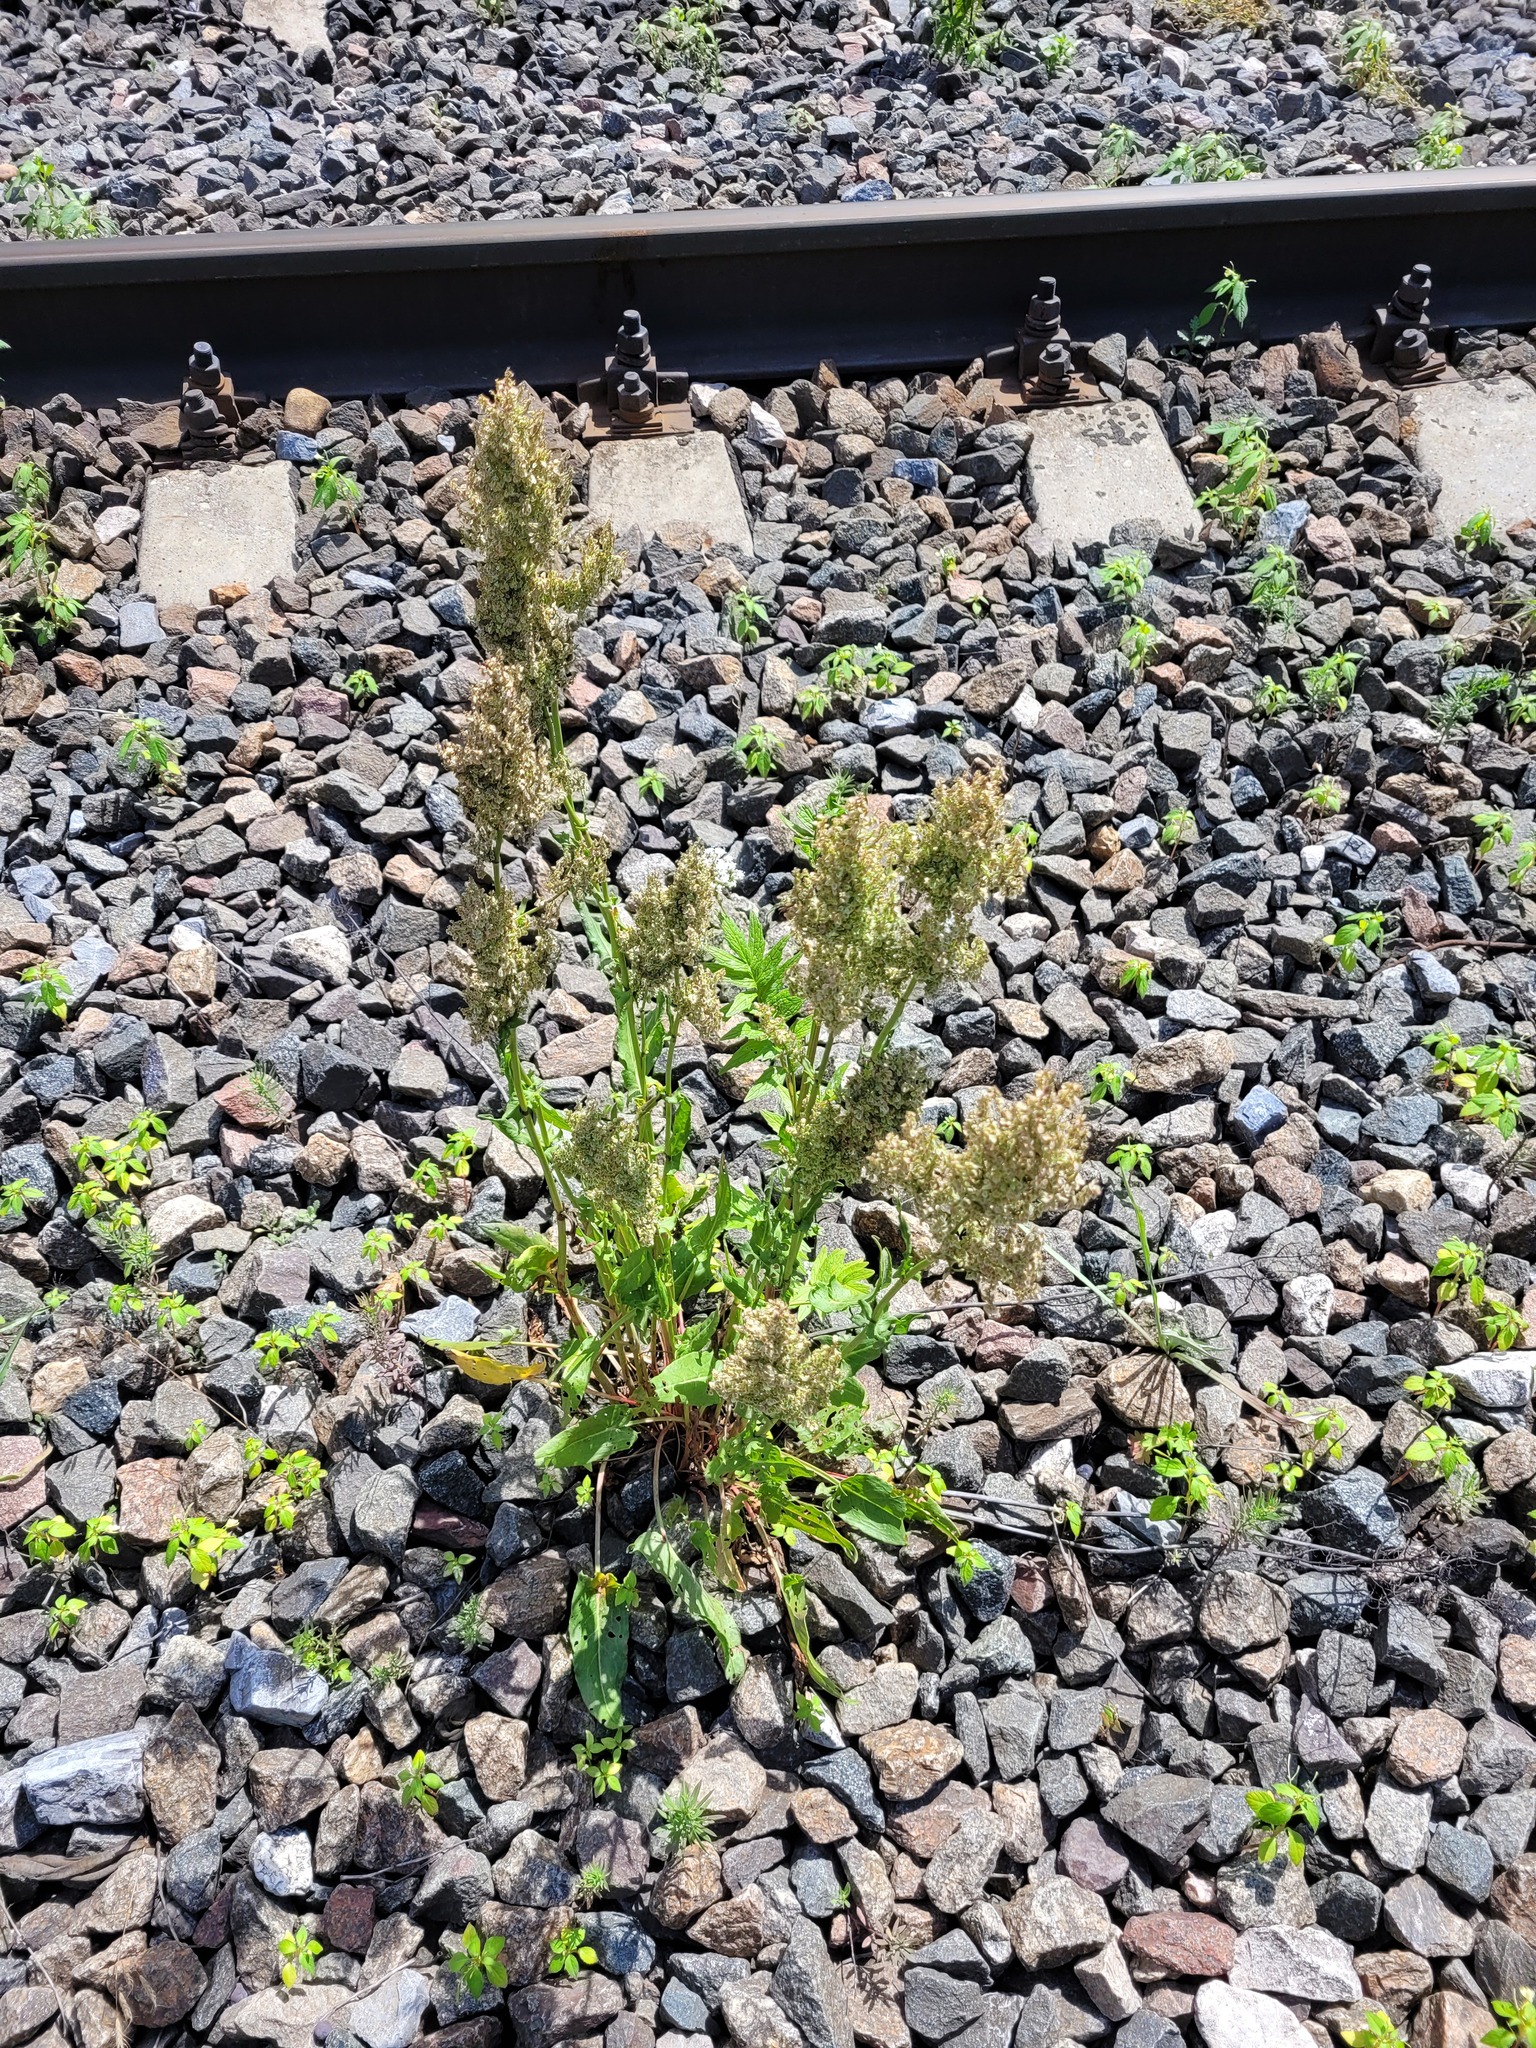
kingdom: Plantae
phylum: Tracheophyta
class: Magnoliopsida
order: Caryophyllales
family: Polygonaceae
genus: Rumex
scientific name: Rumex thyrsiflorus
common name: Garden sorrel
